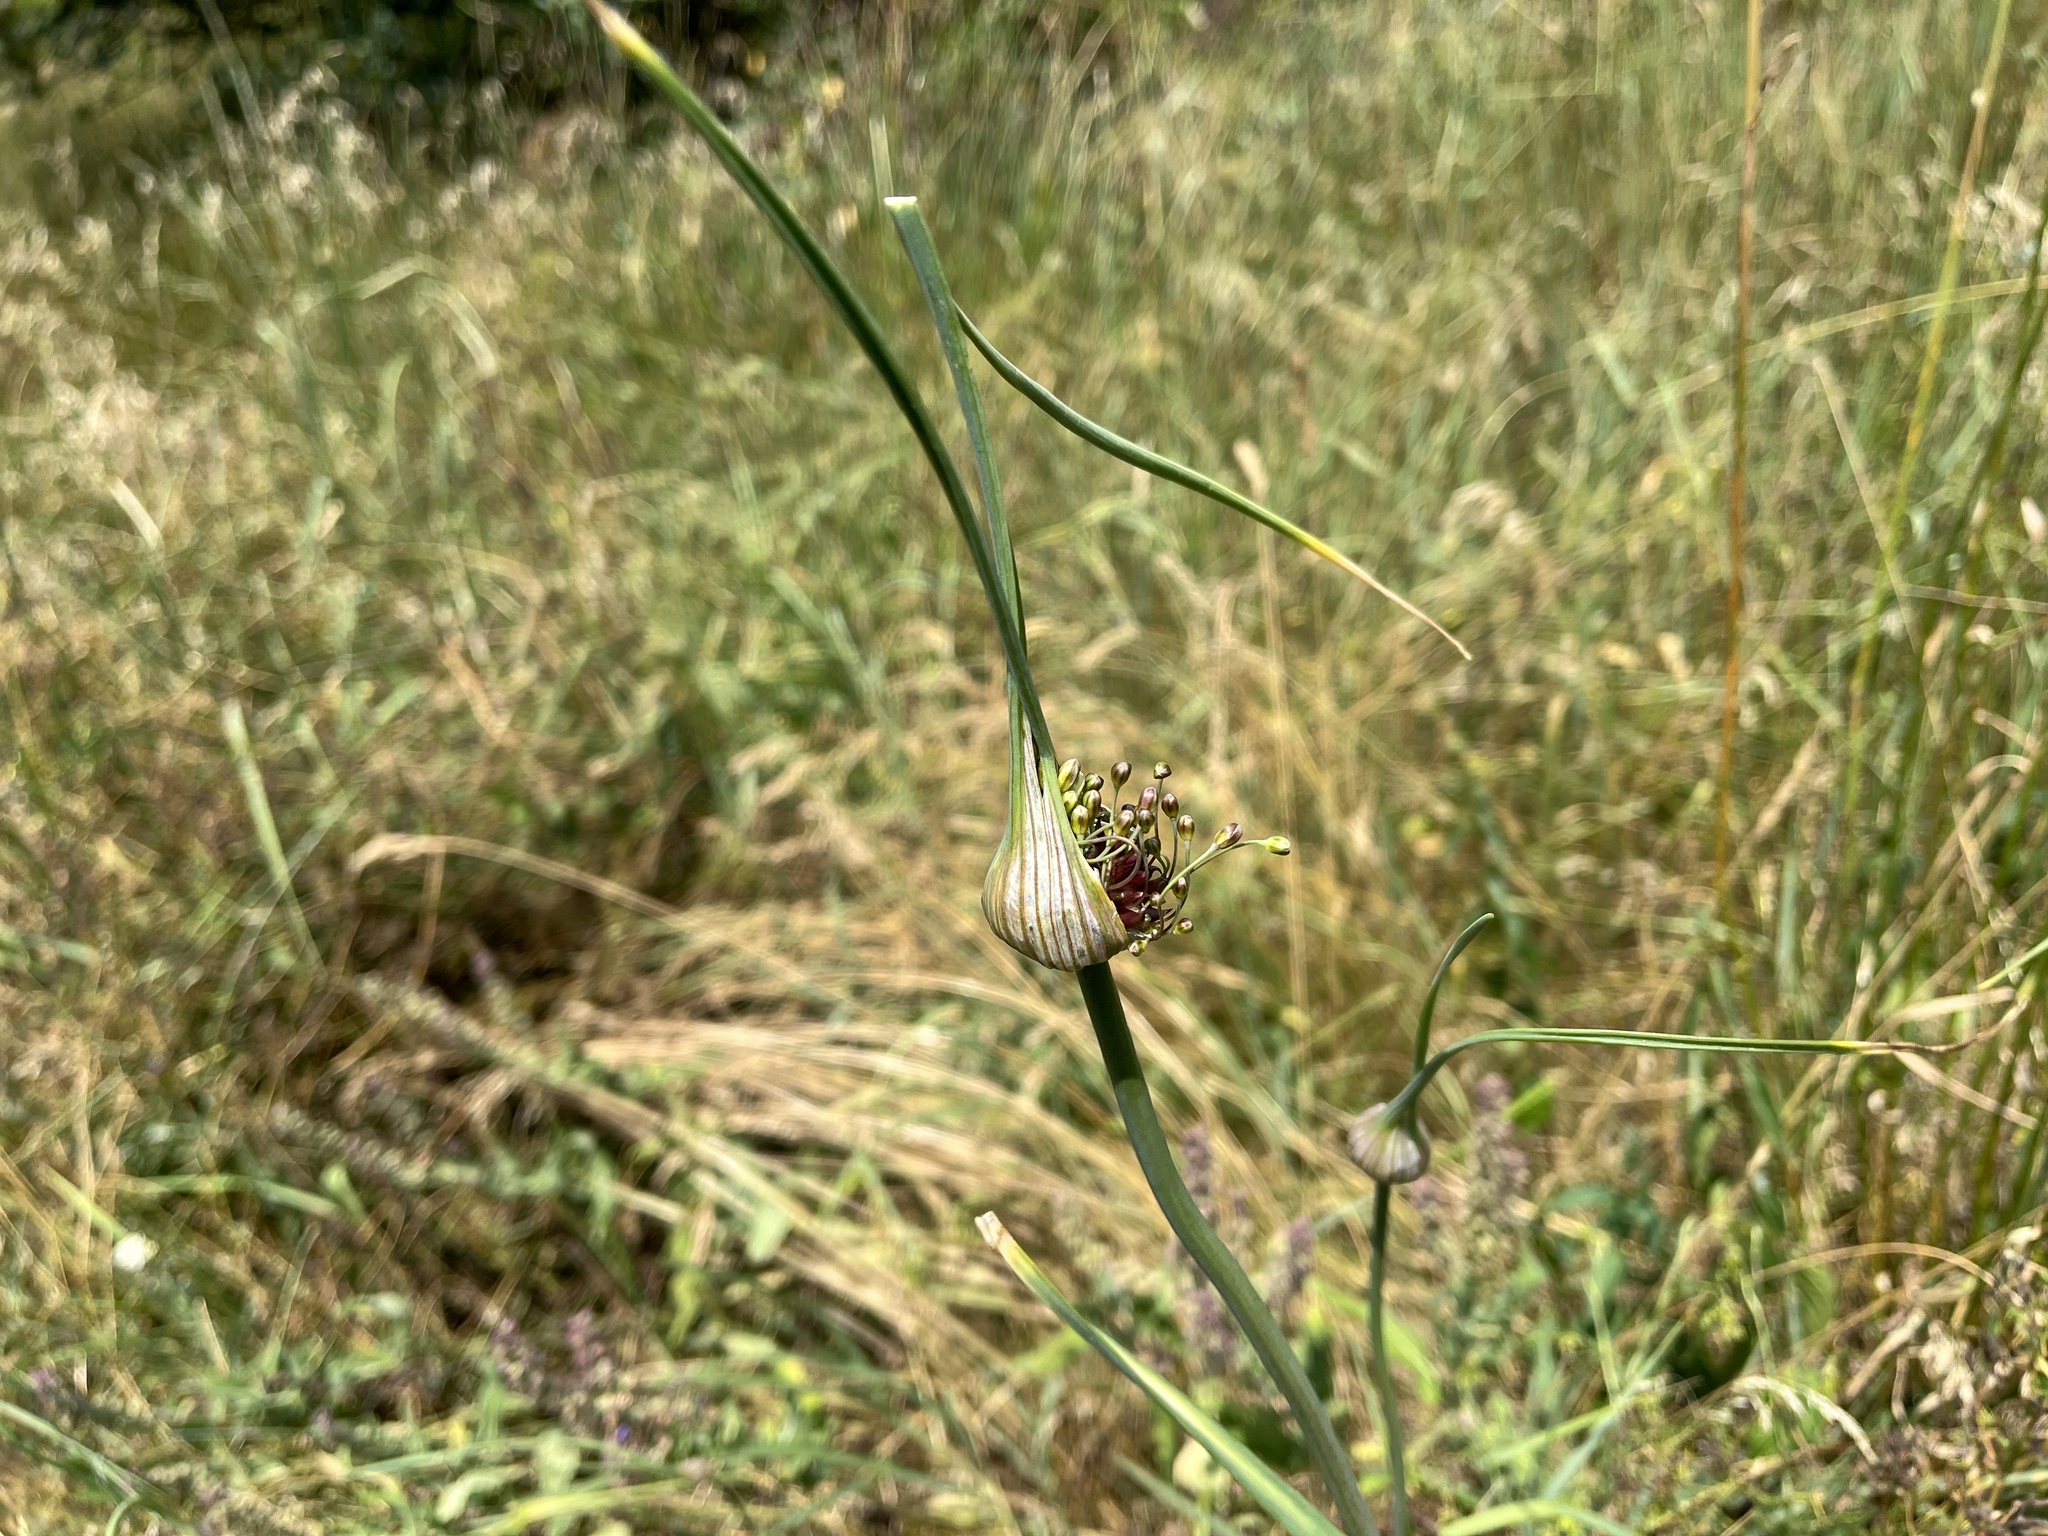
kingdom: Plantae
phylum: Tracheophyta
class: Liliopsida
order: Asparagales
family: Amaryllidaceae
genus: Allium
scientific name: Allium oleraceum
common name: Field garlic
